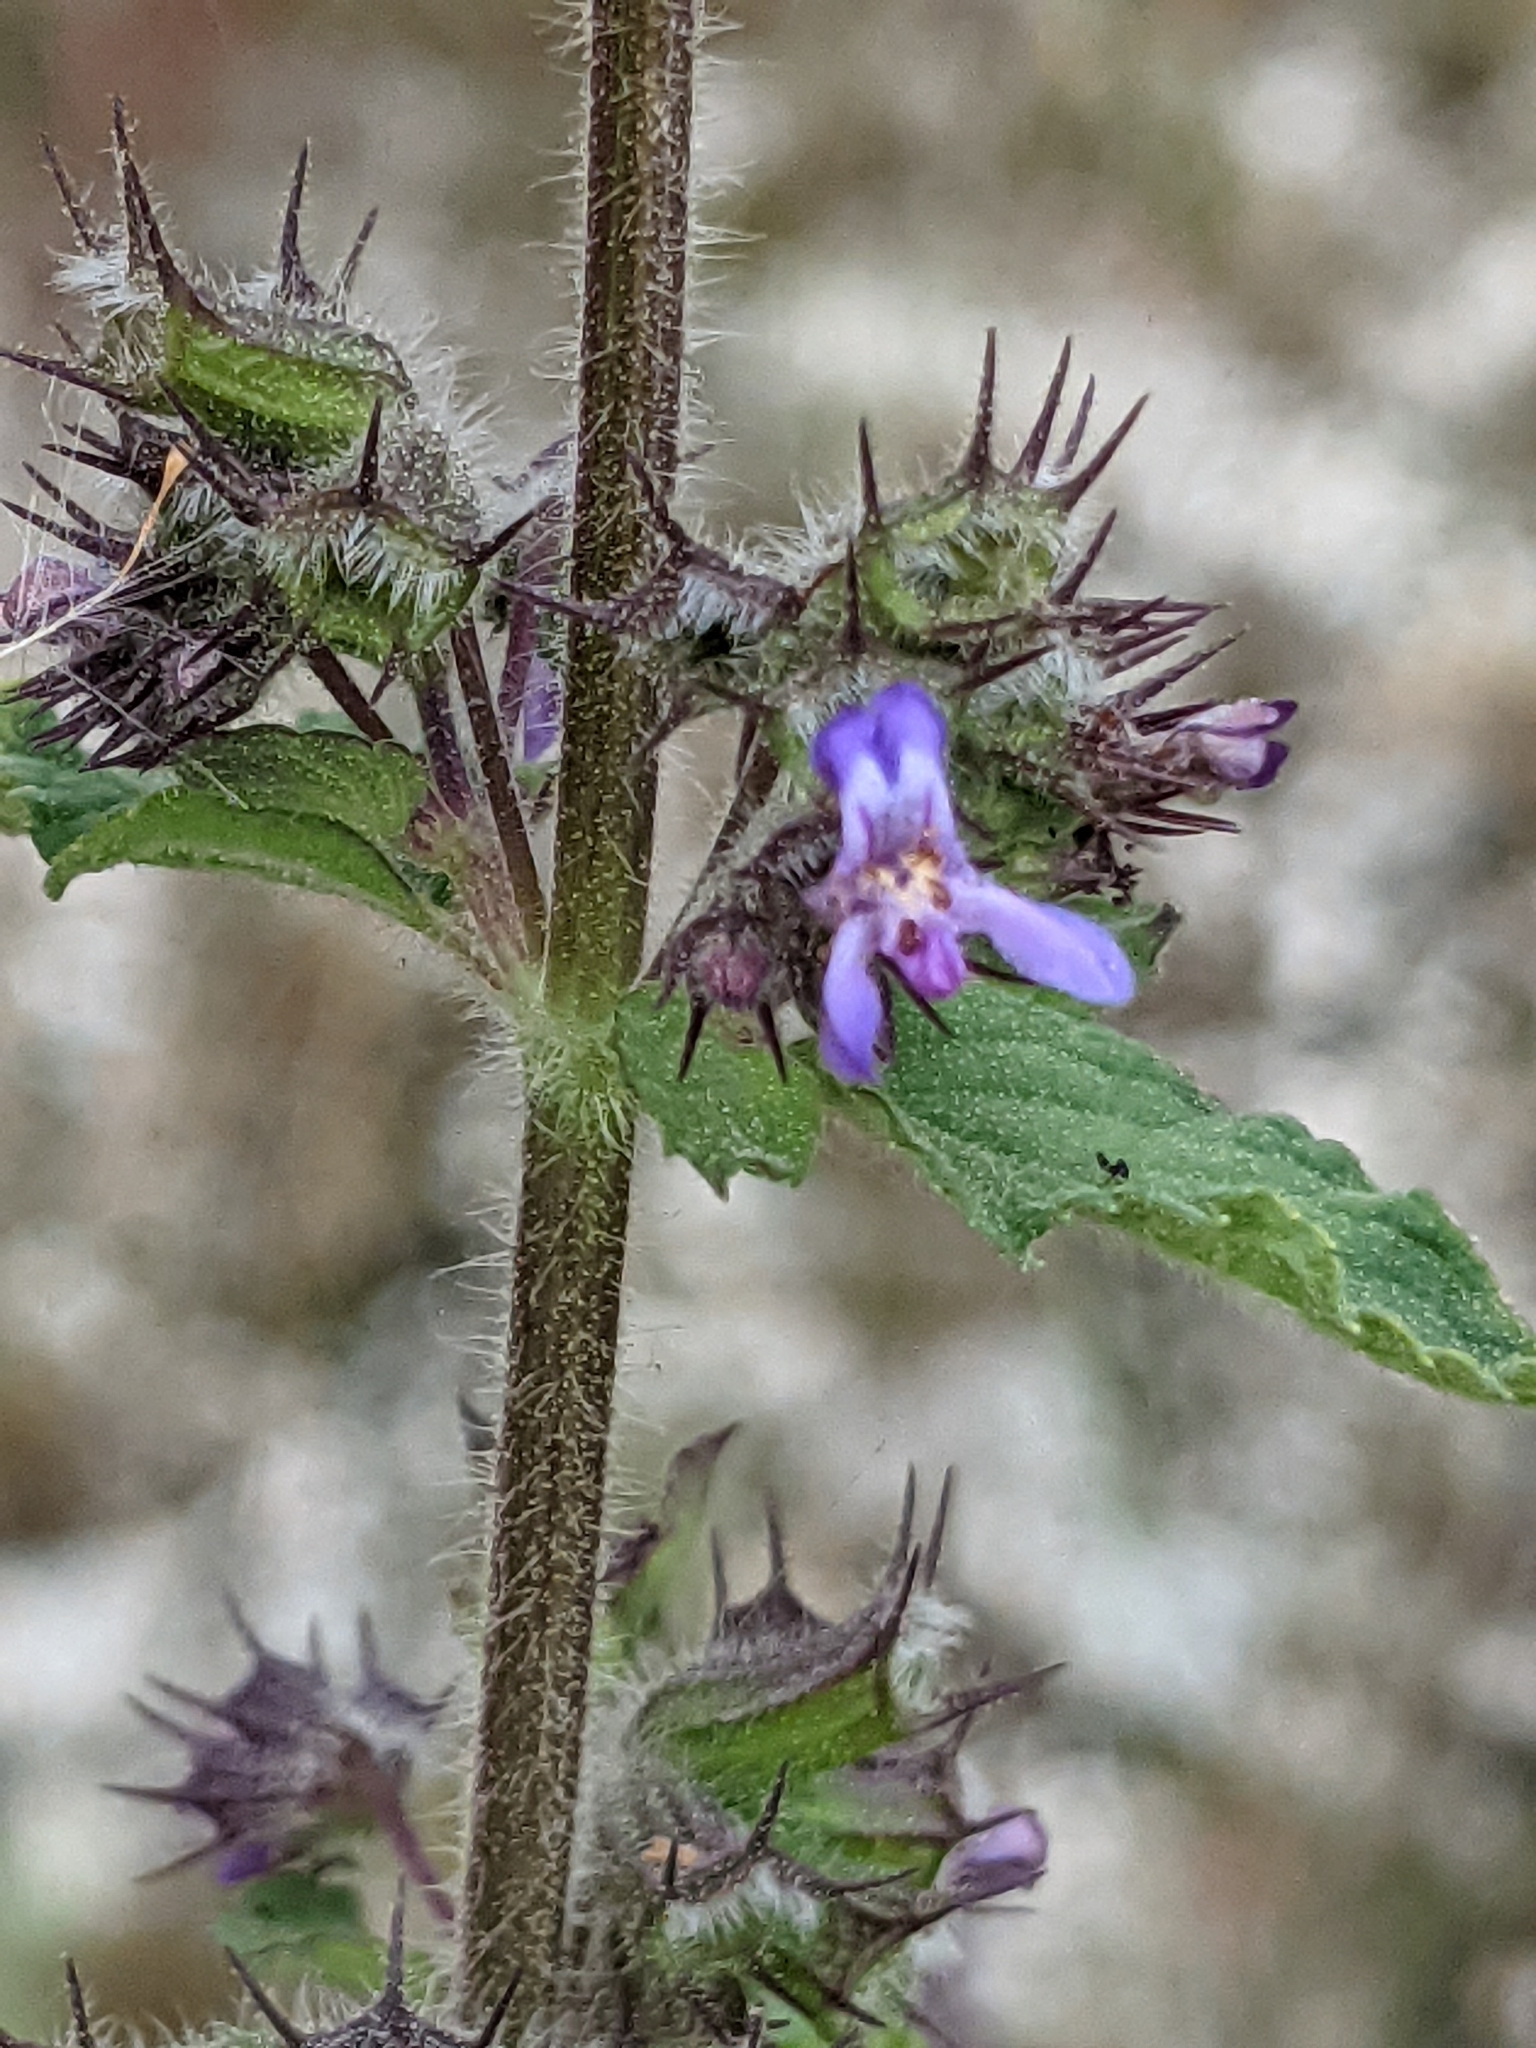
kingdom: Plantae
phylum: Tracheophyta
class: Magnoliopsida
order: Lamiales
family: Lamiaceae
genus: Mesosphaerum
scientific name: Mesosphaerum suaveolens
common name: Pignut
